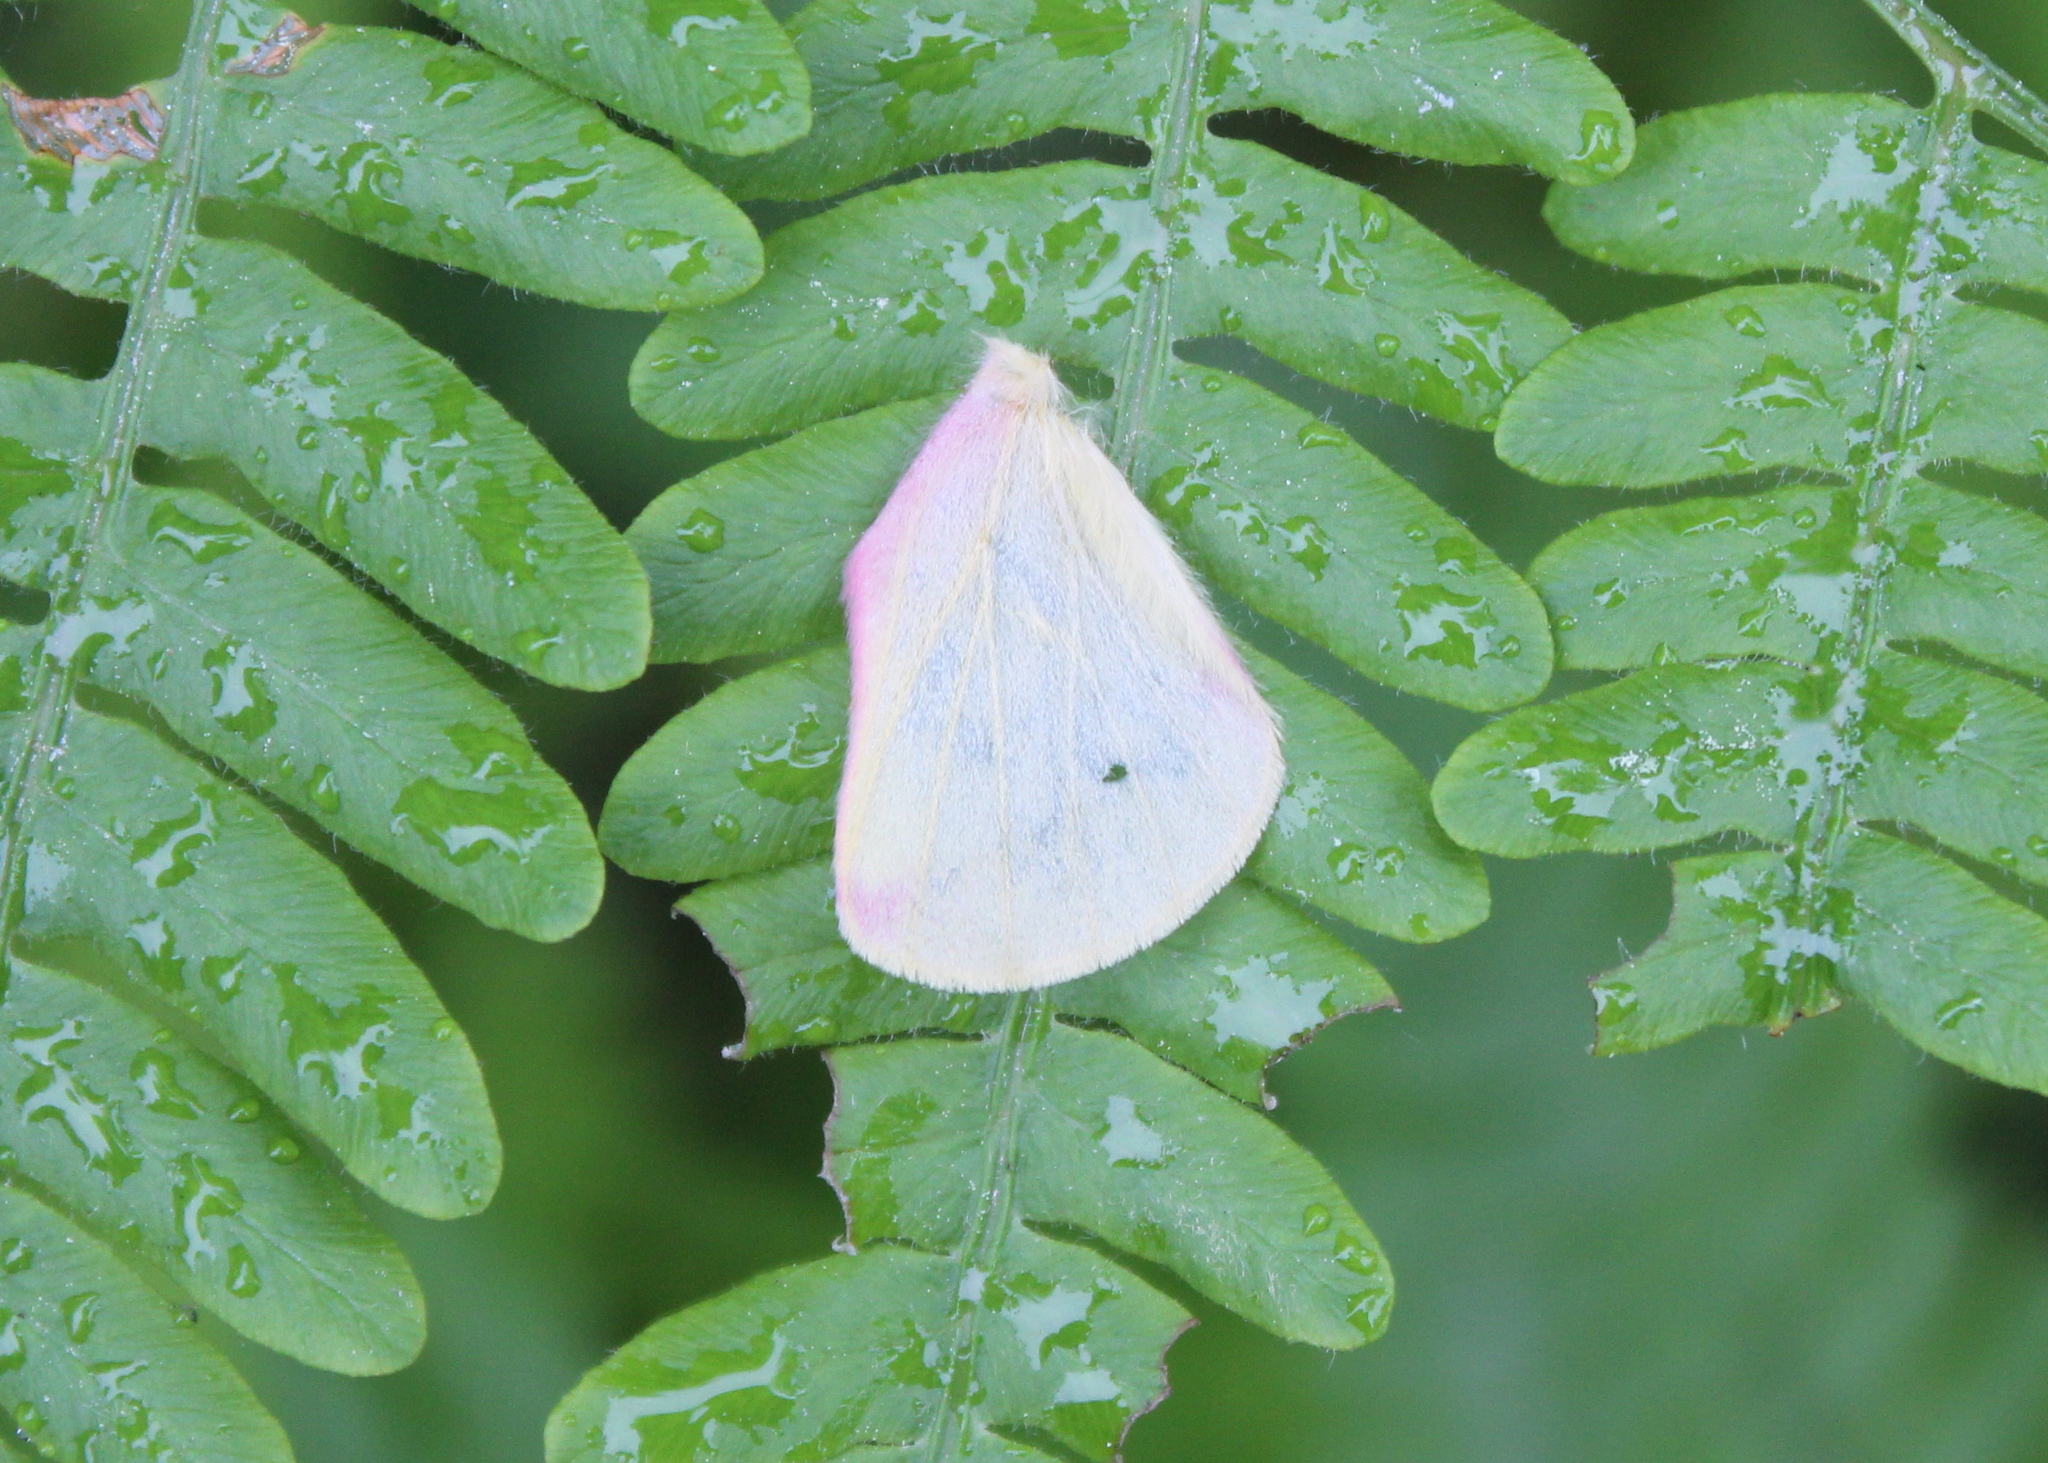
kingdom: Animalia
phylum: Arthropoda
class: Insecta
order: Lepidoptera
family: Saturniidae
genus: Dryocampa
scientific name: Dryocampa rubicunda
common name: Rosy maple moth
